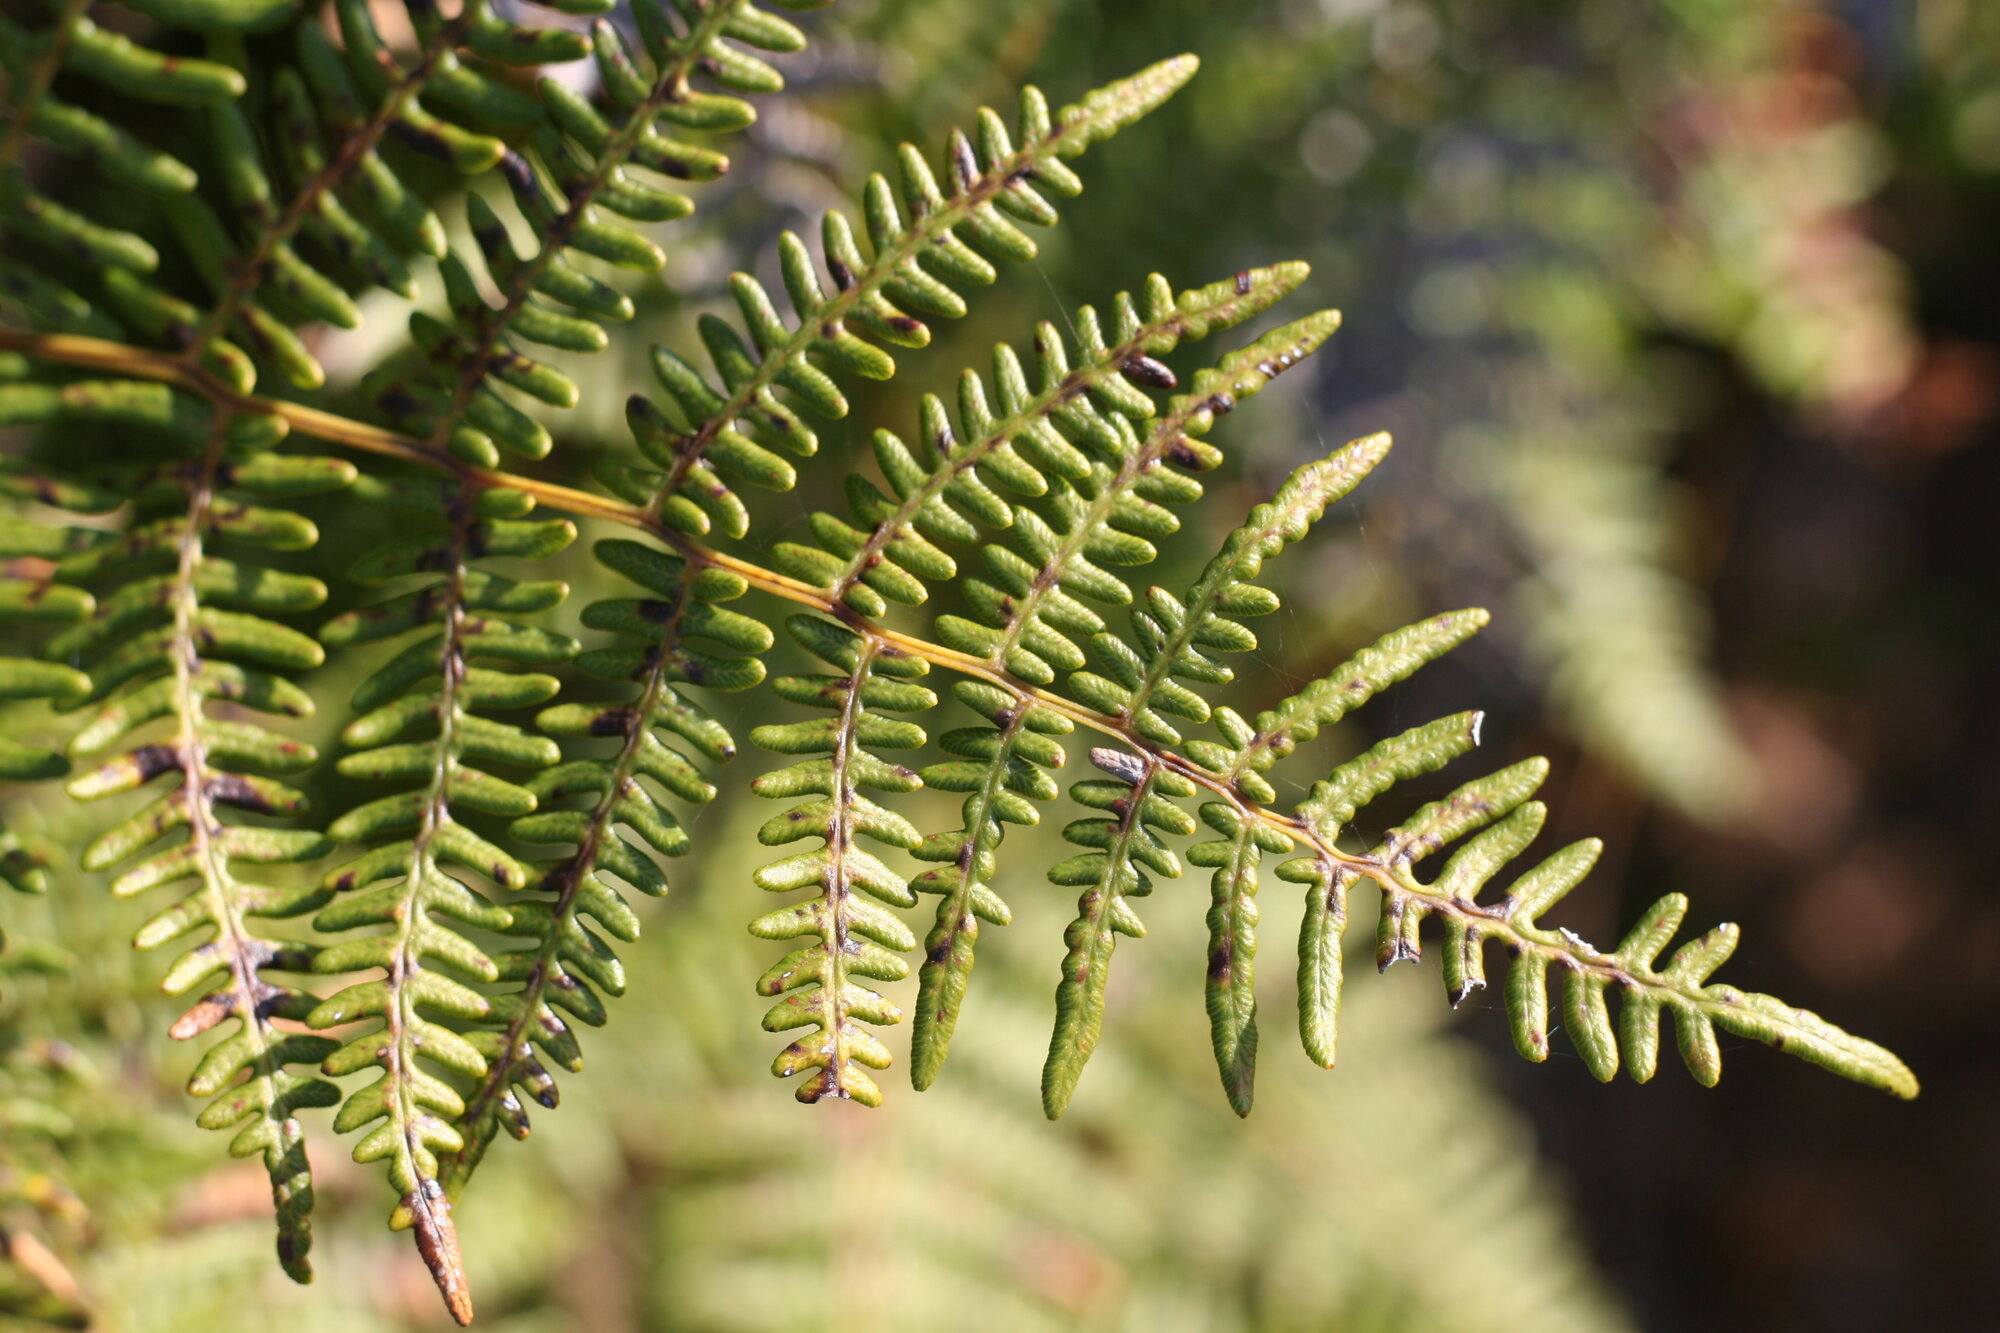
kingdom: Plantae
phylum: Tracheophyta
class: Polypodiopsida
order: Polypodiales
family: Dennstaedtiaceae
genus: Pteridium
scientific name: Pteridium aquilinum
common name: Bracken
